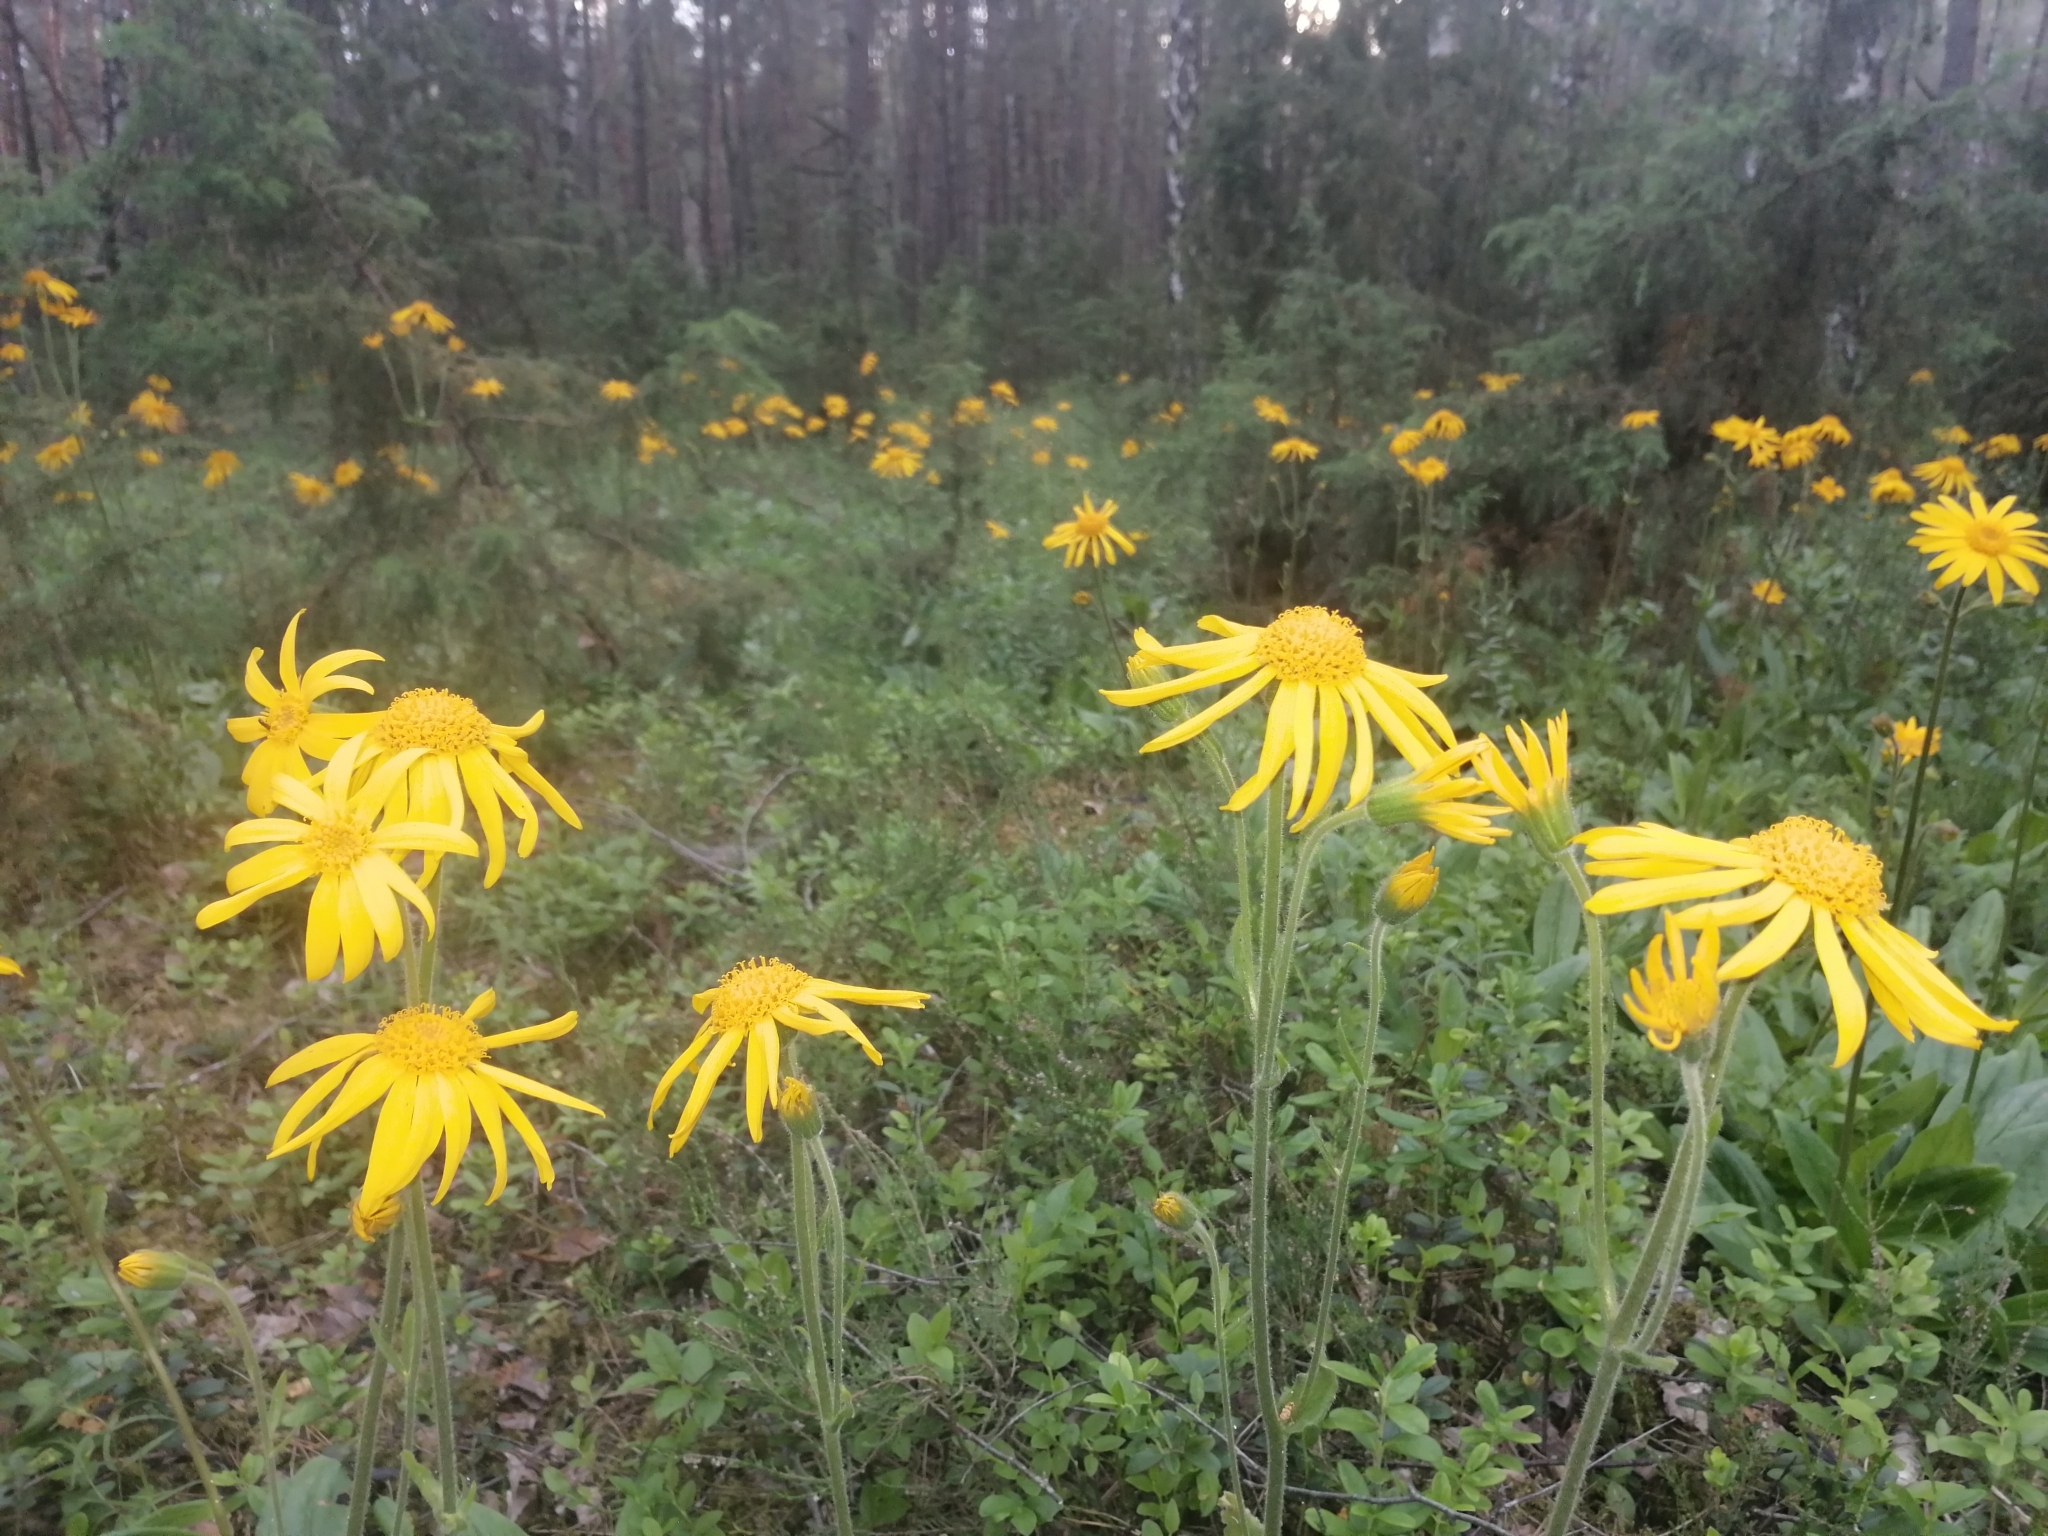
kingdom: Plantae
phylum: Tracheophyta
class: Magnoliopsida
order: Asterales
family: Asteraceae
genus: Arnica
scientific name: Arnica montana
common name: Leopard's bane
